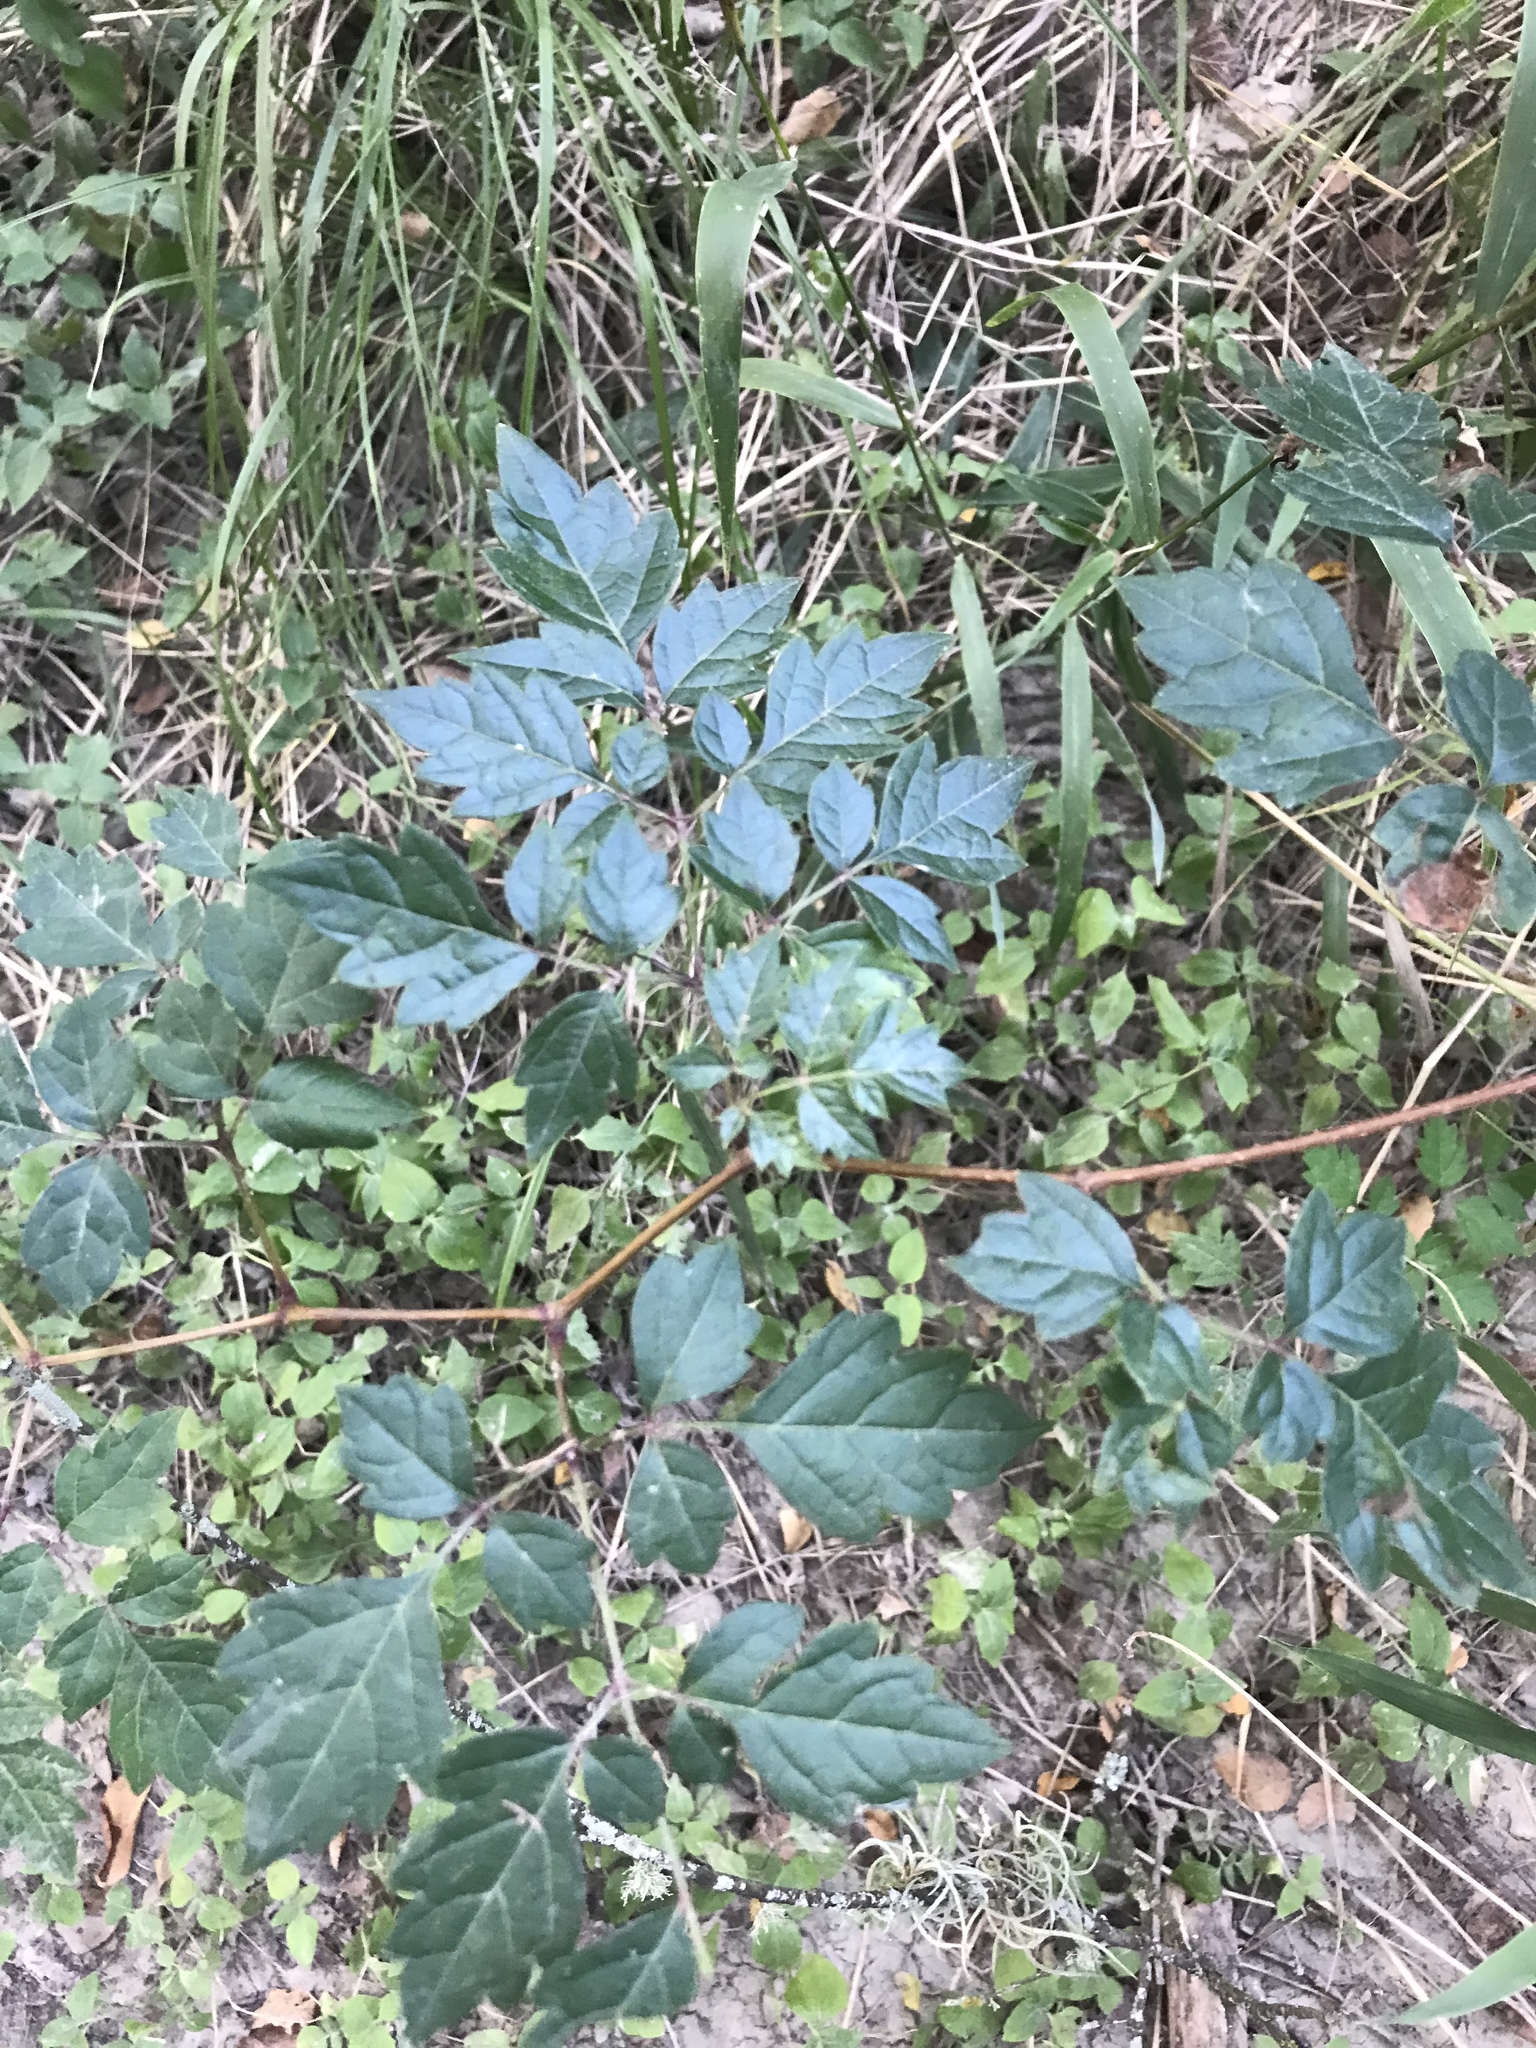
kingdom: Plantae
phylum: Tracheophyta
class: Magnoliopsida
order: Vitales
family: Vitaceae
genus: Nekemias
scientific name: Nekemias arborea
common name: Peppervine
